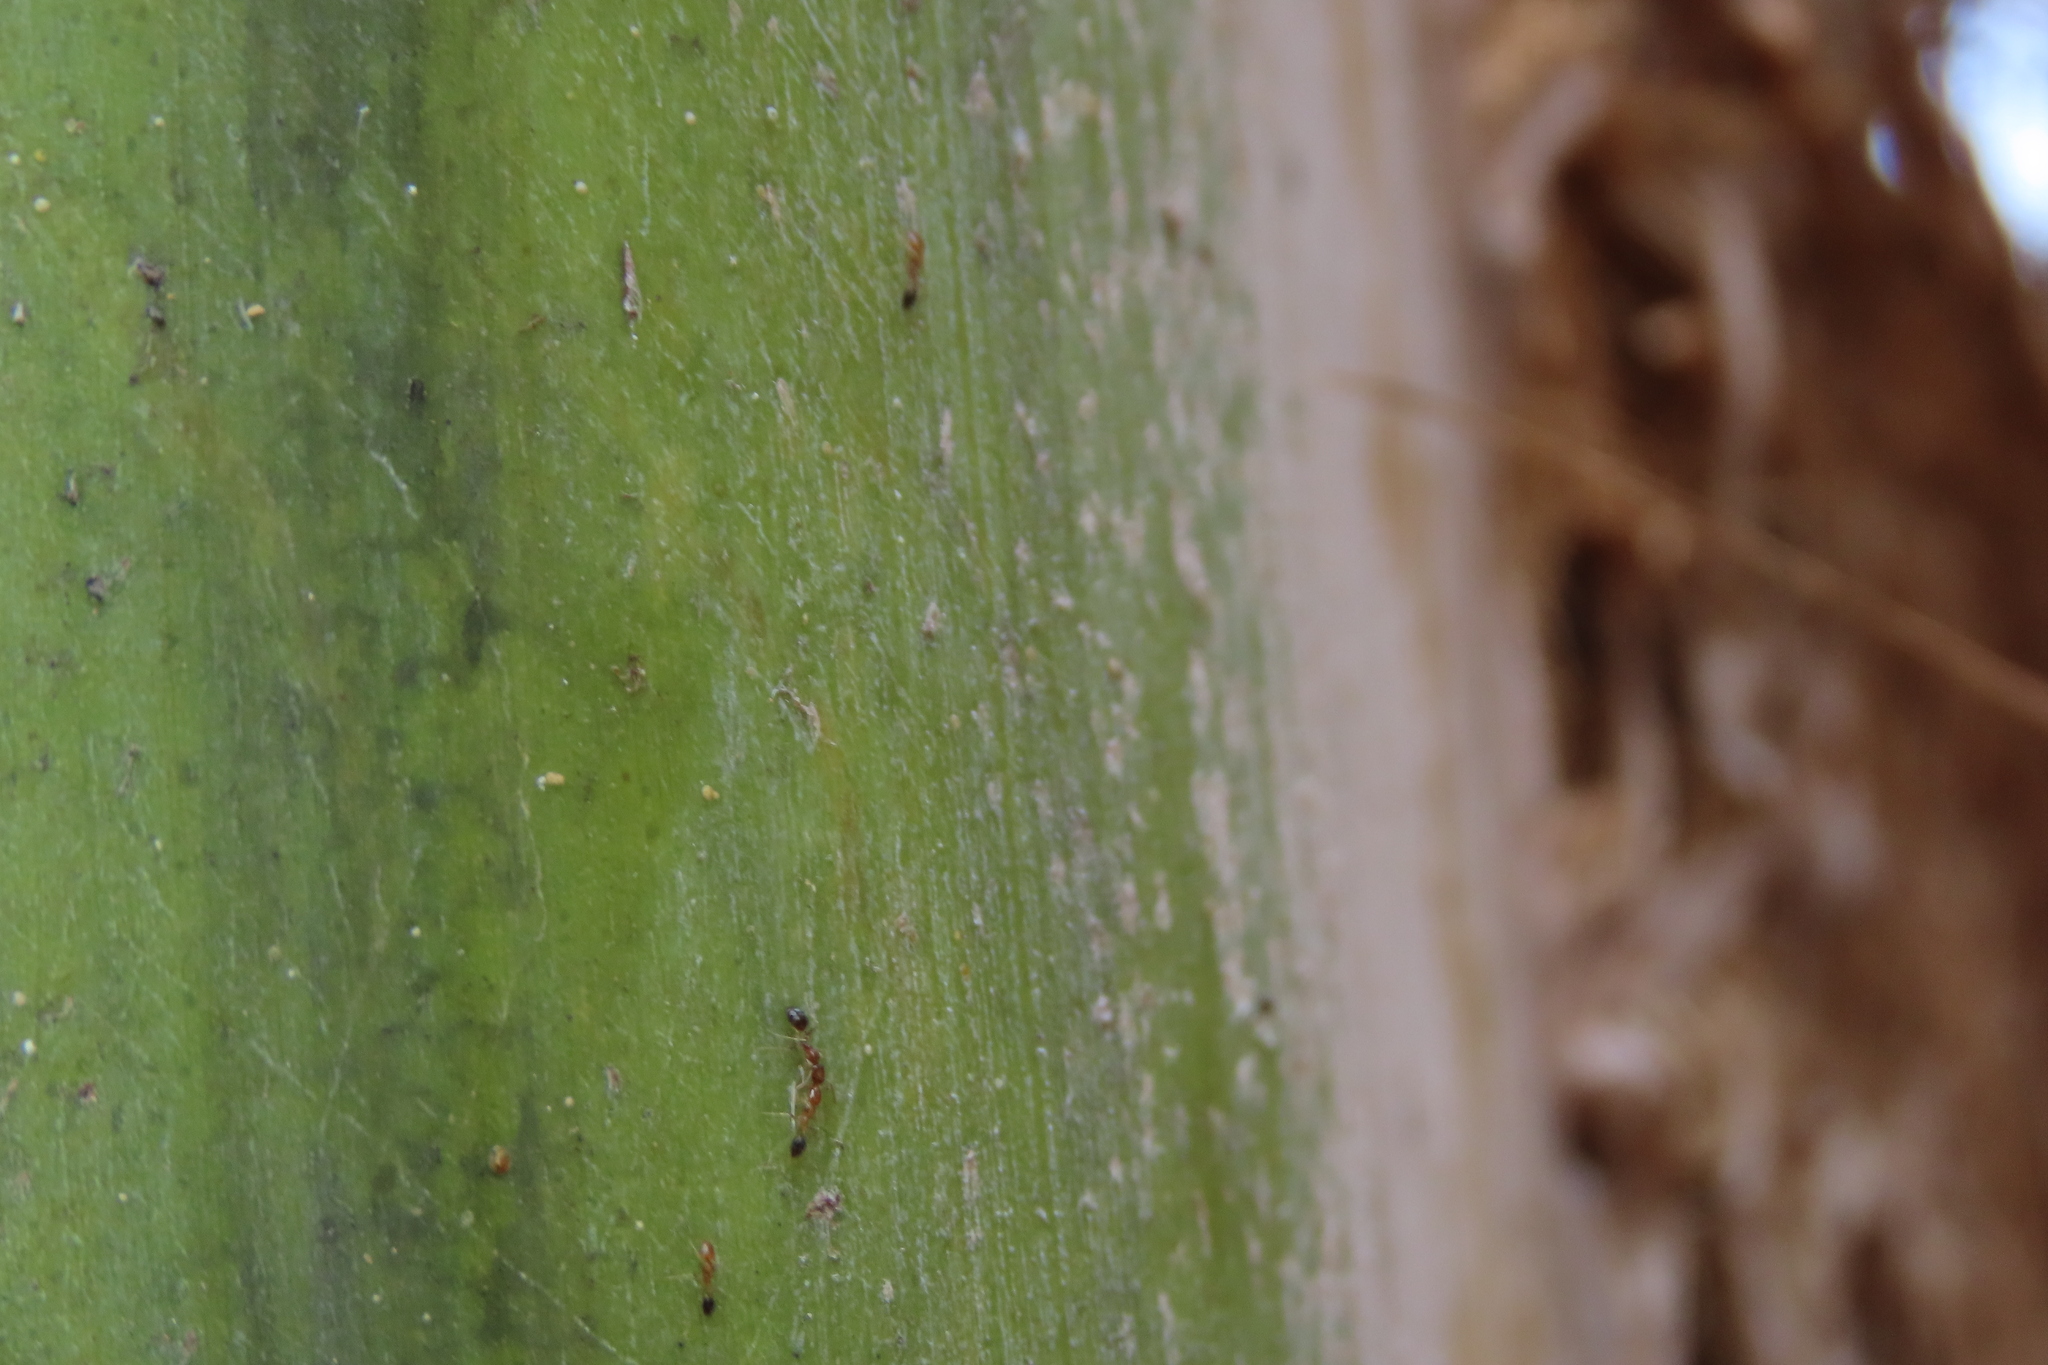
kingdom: Animalia
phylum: Arthropoda
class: Insecta
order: Hymenoptera
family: Formicidae
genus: Monomorium
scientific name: Monomorium destructor
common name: Destructive trailing ant
